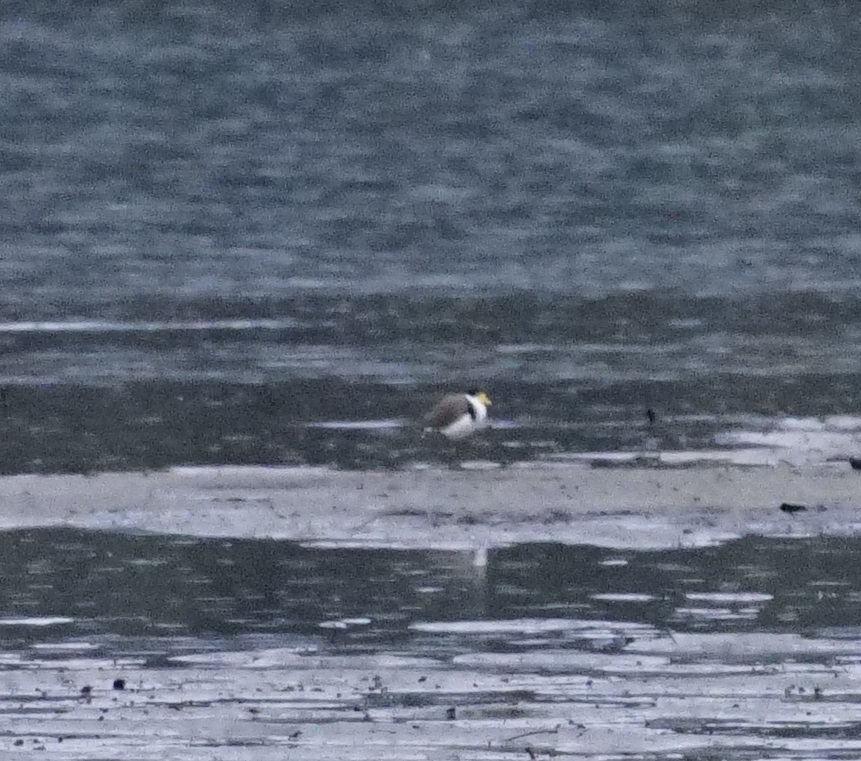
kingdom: Animalia
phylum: Chordata
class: Aves
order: Charadriiformes
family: Charadriidae
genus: Vanellus
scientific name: Vanellus miles
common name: Masked lapwing
